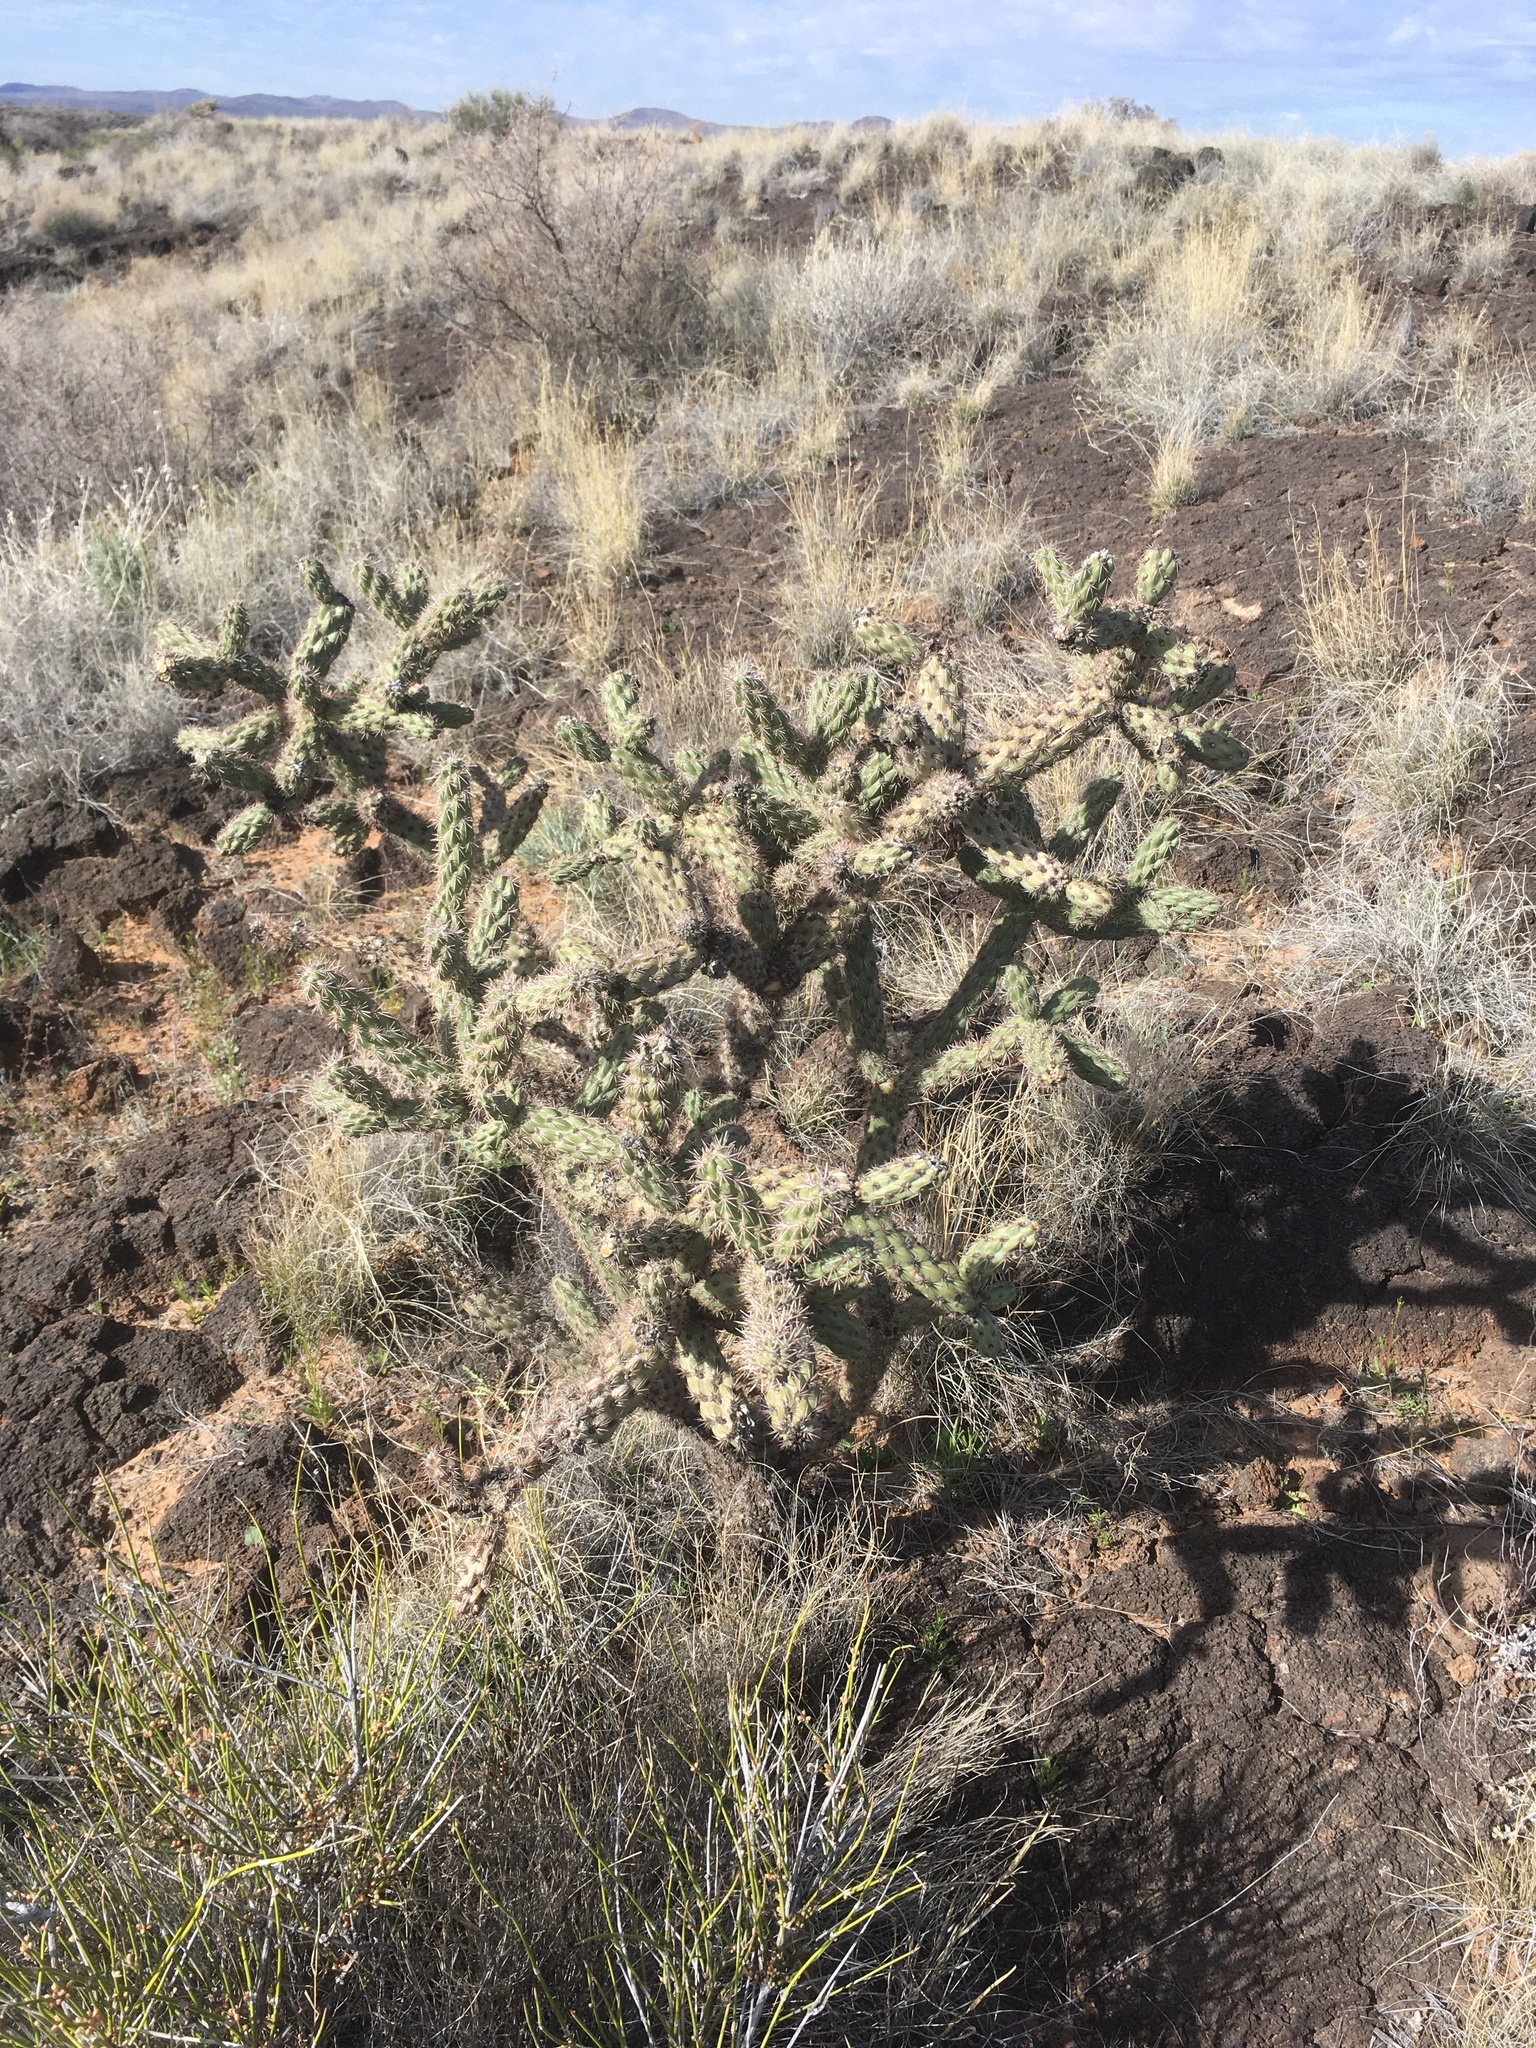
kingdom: Plantae
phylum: Tracheophyta
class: Magnoliopsida
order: Caryophyllales
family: Cactaceae
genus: Cylindropuntia
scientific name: Cylindropuntia imbricata
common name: Candelabrum cactus
